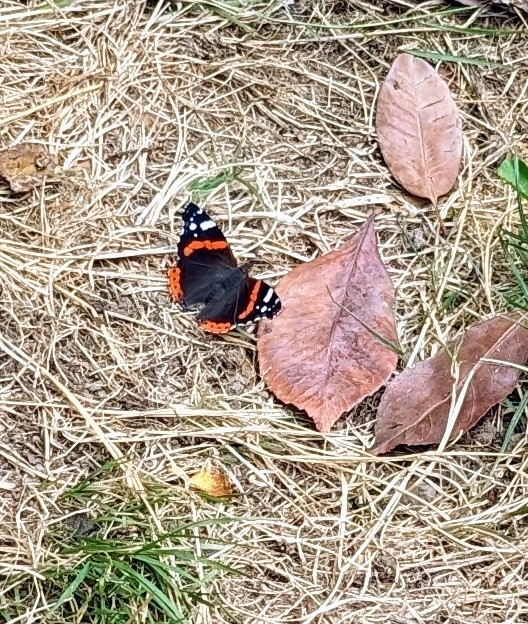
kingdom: Animalia
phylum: Arthropoda
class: Insecta
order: Lepidoptera
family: Nymphalidae
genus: Vanessa
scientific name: Vanessa atalanta
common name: Red admiral
